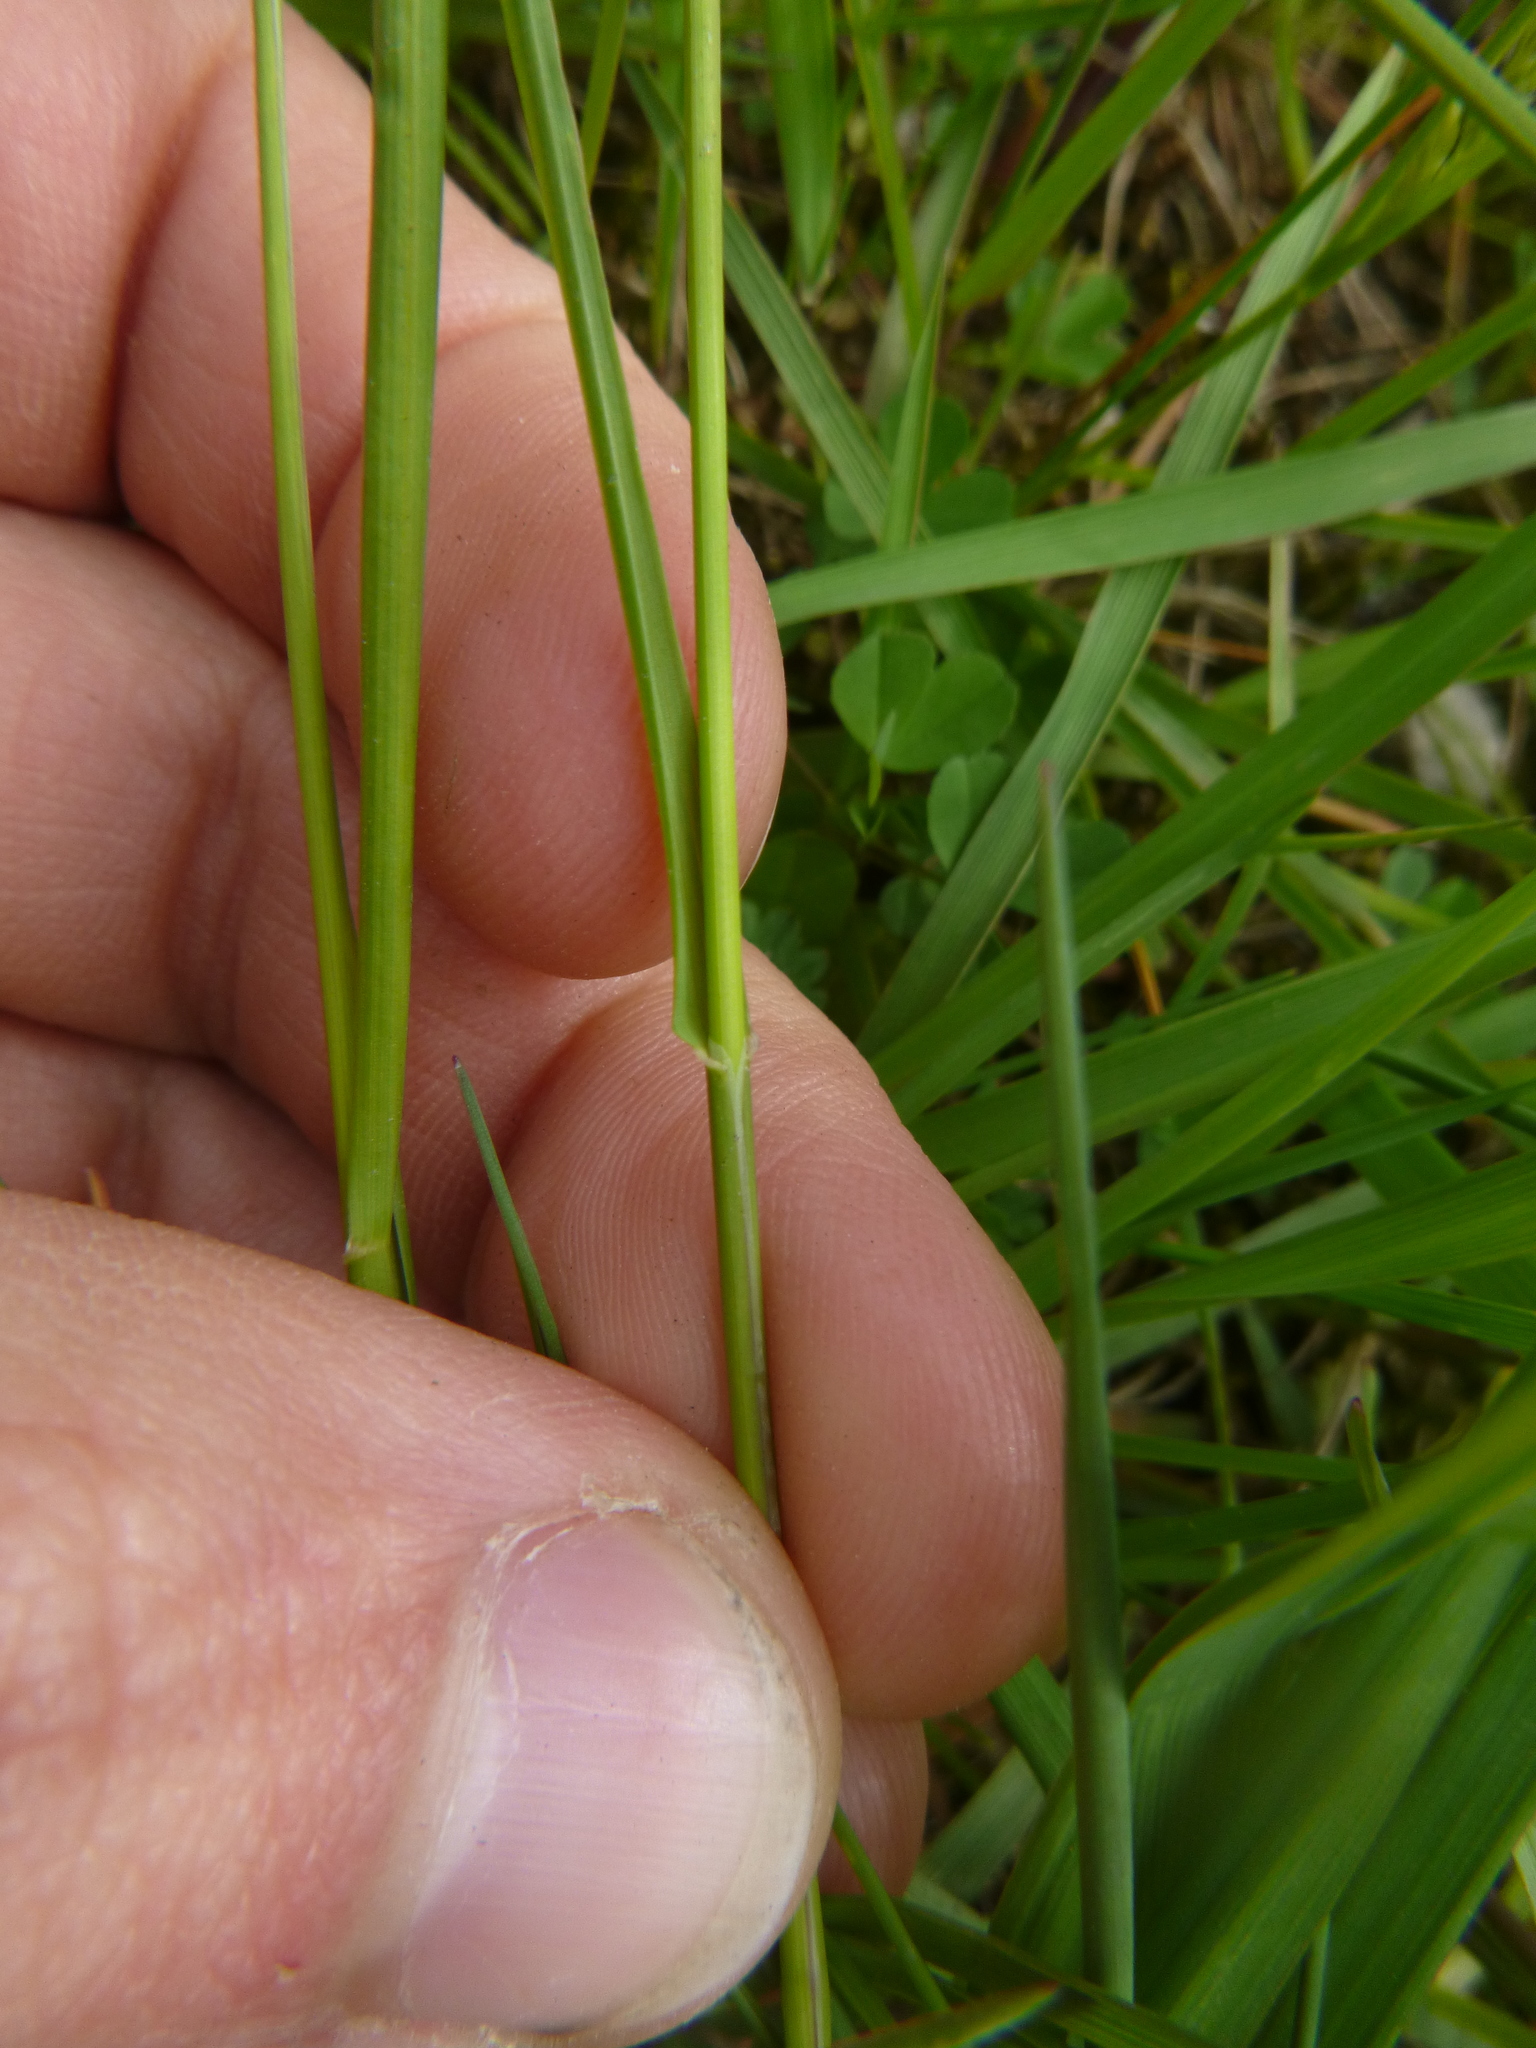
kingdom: Plantae
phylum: Tracheophyta
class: Liliopsida
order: Poales
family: Poaceae
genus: Poa
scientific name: Poa pratensis
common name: Kentucky bluegrass
